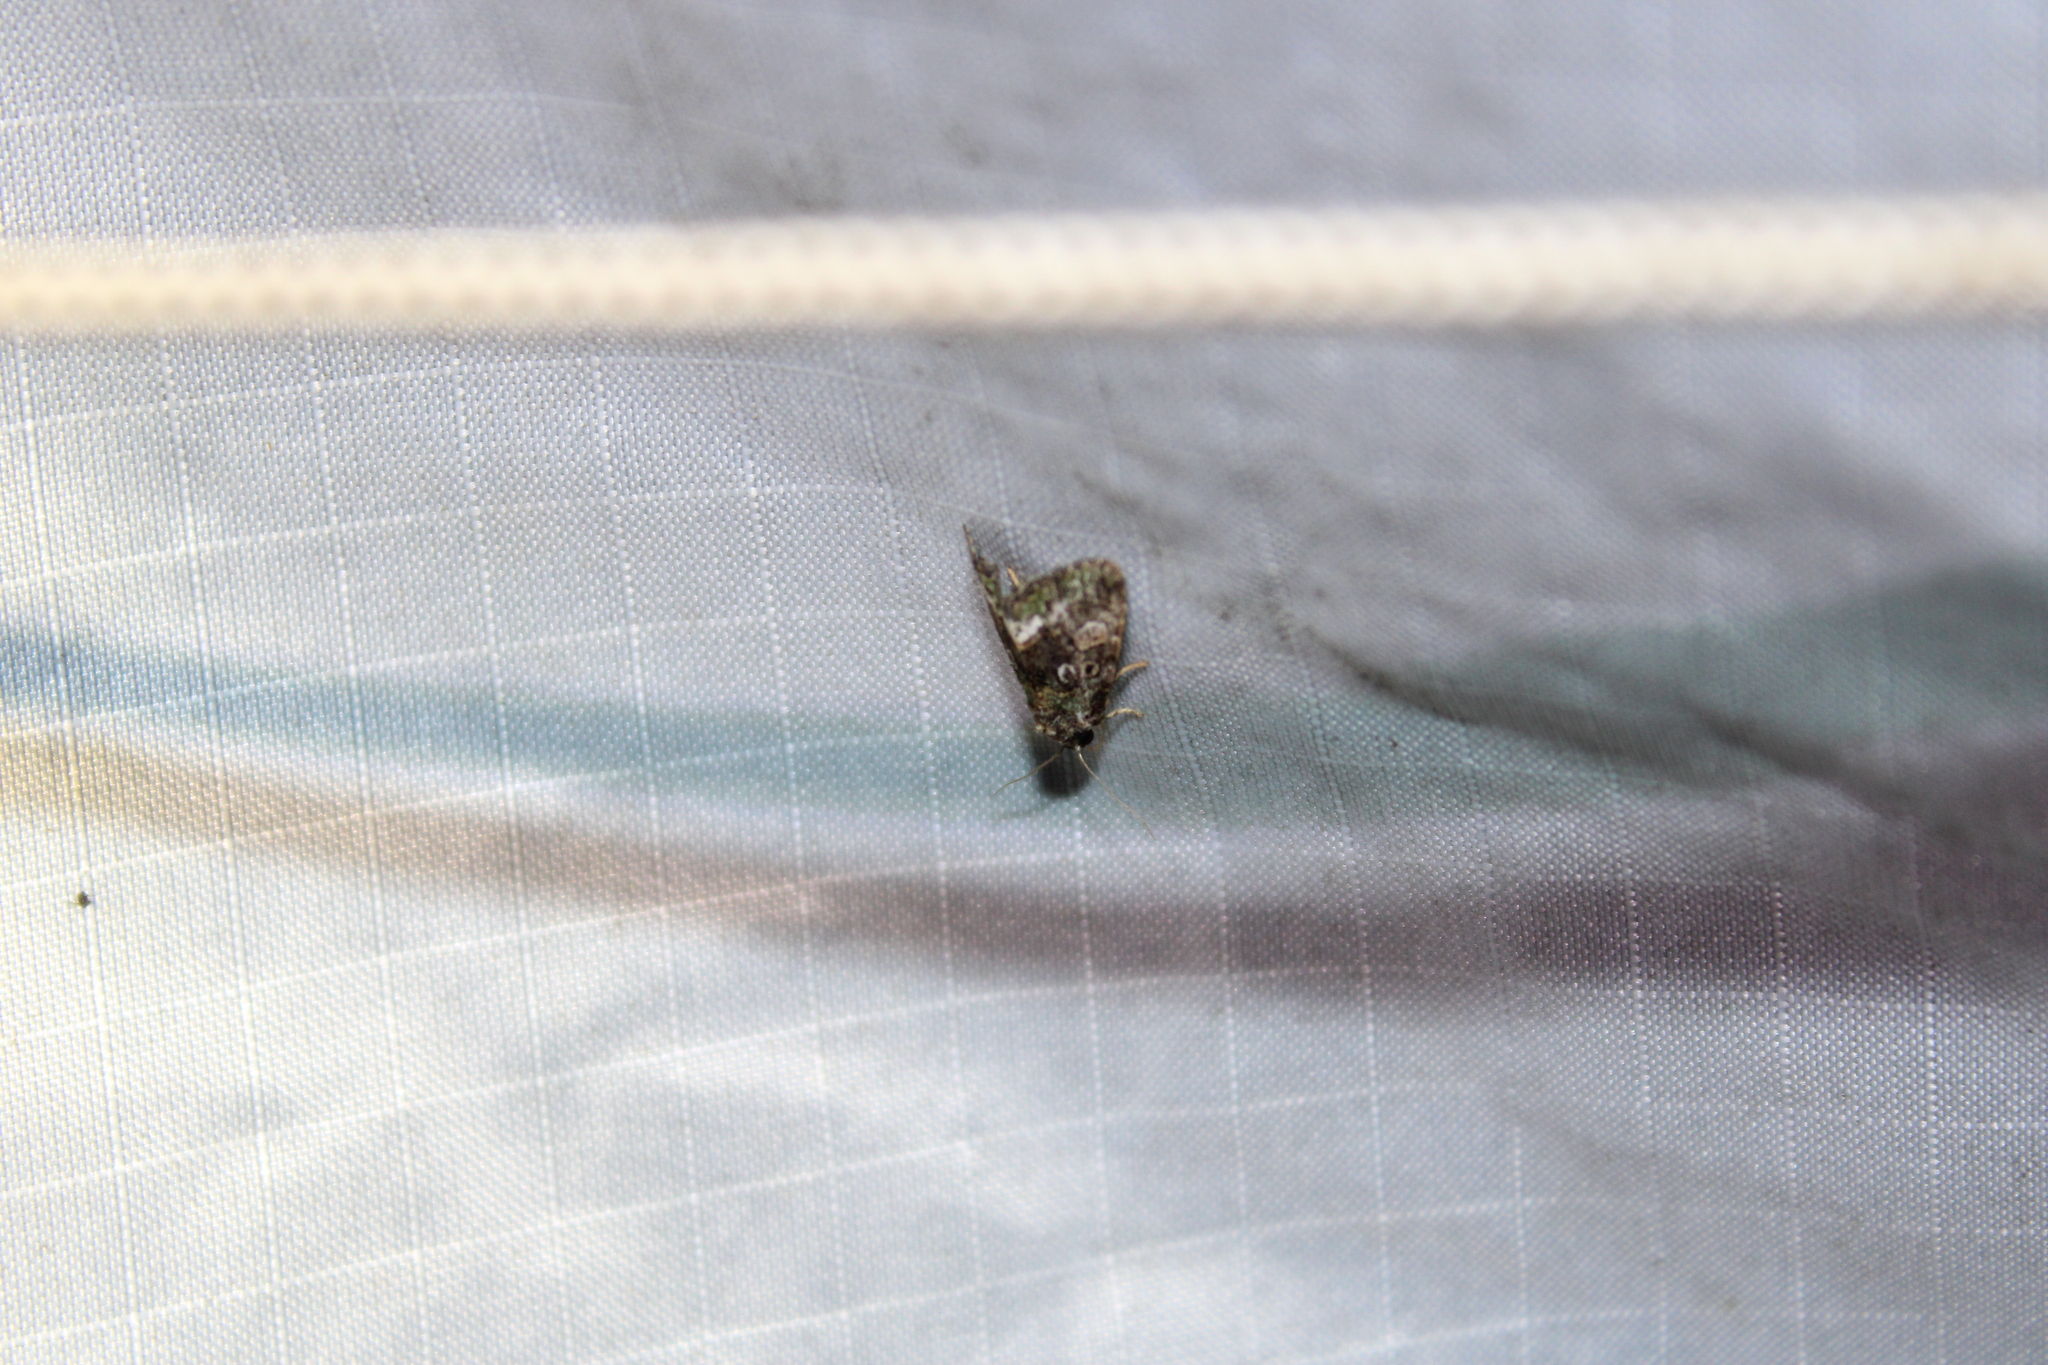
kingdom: Animalia
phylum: Arthropoda
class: Insecta
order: Lepidoptera
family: Noctuidae
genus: Lithacodia
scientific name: Lithacodia musta
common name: Small mossy glyph
